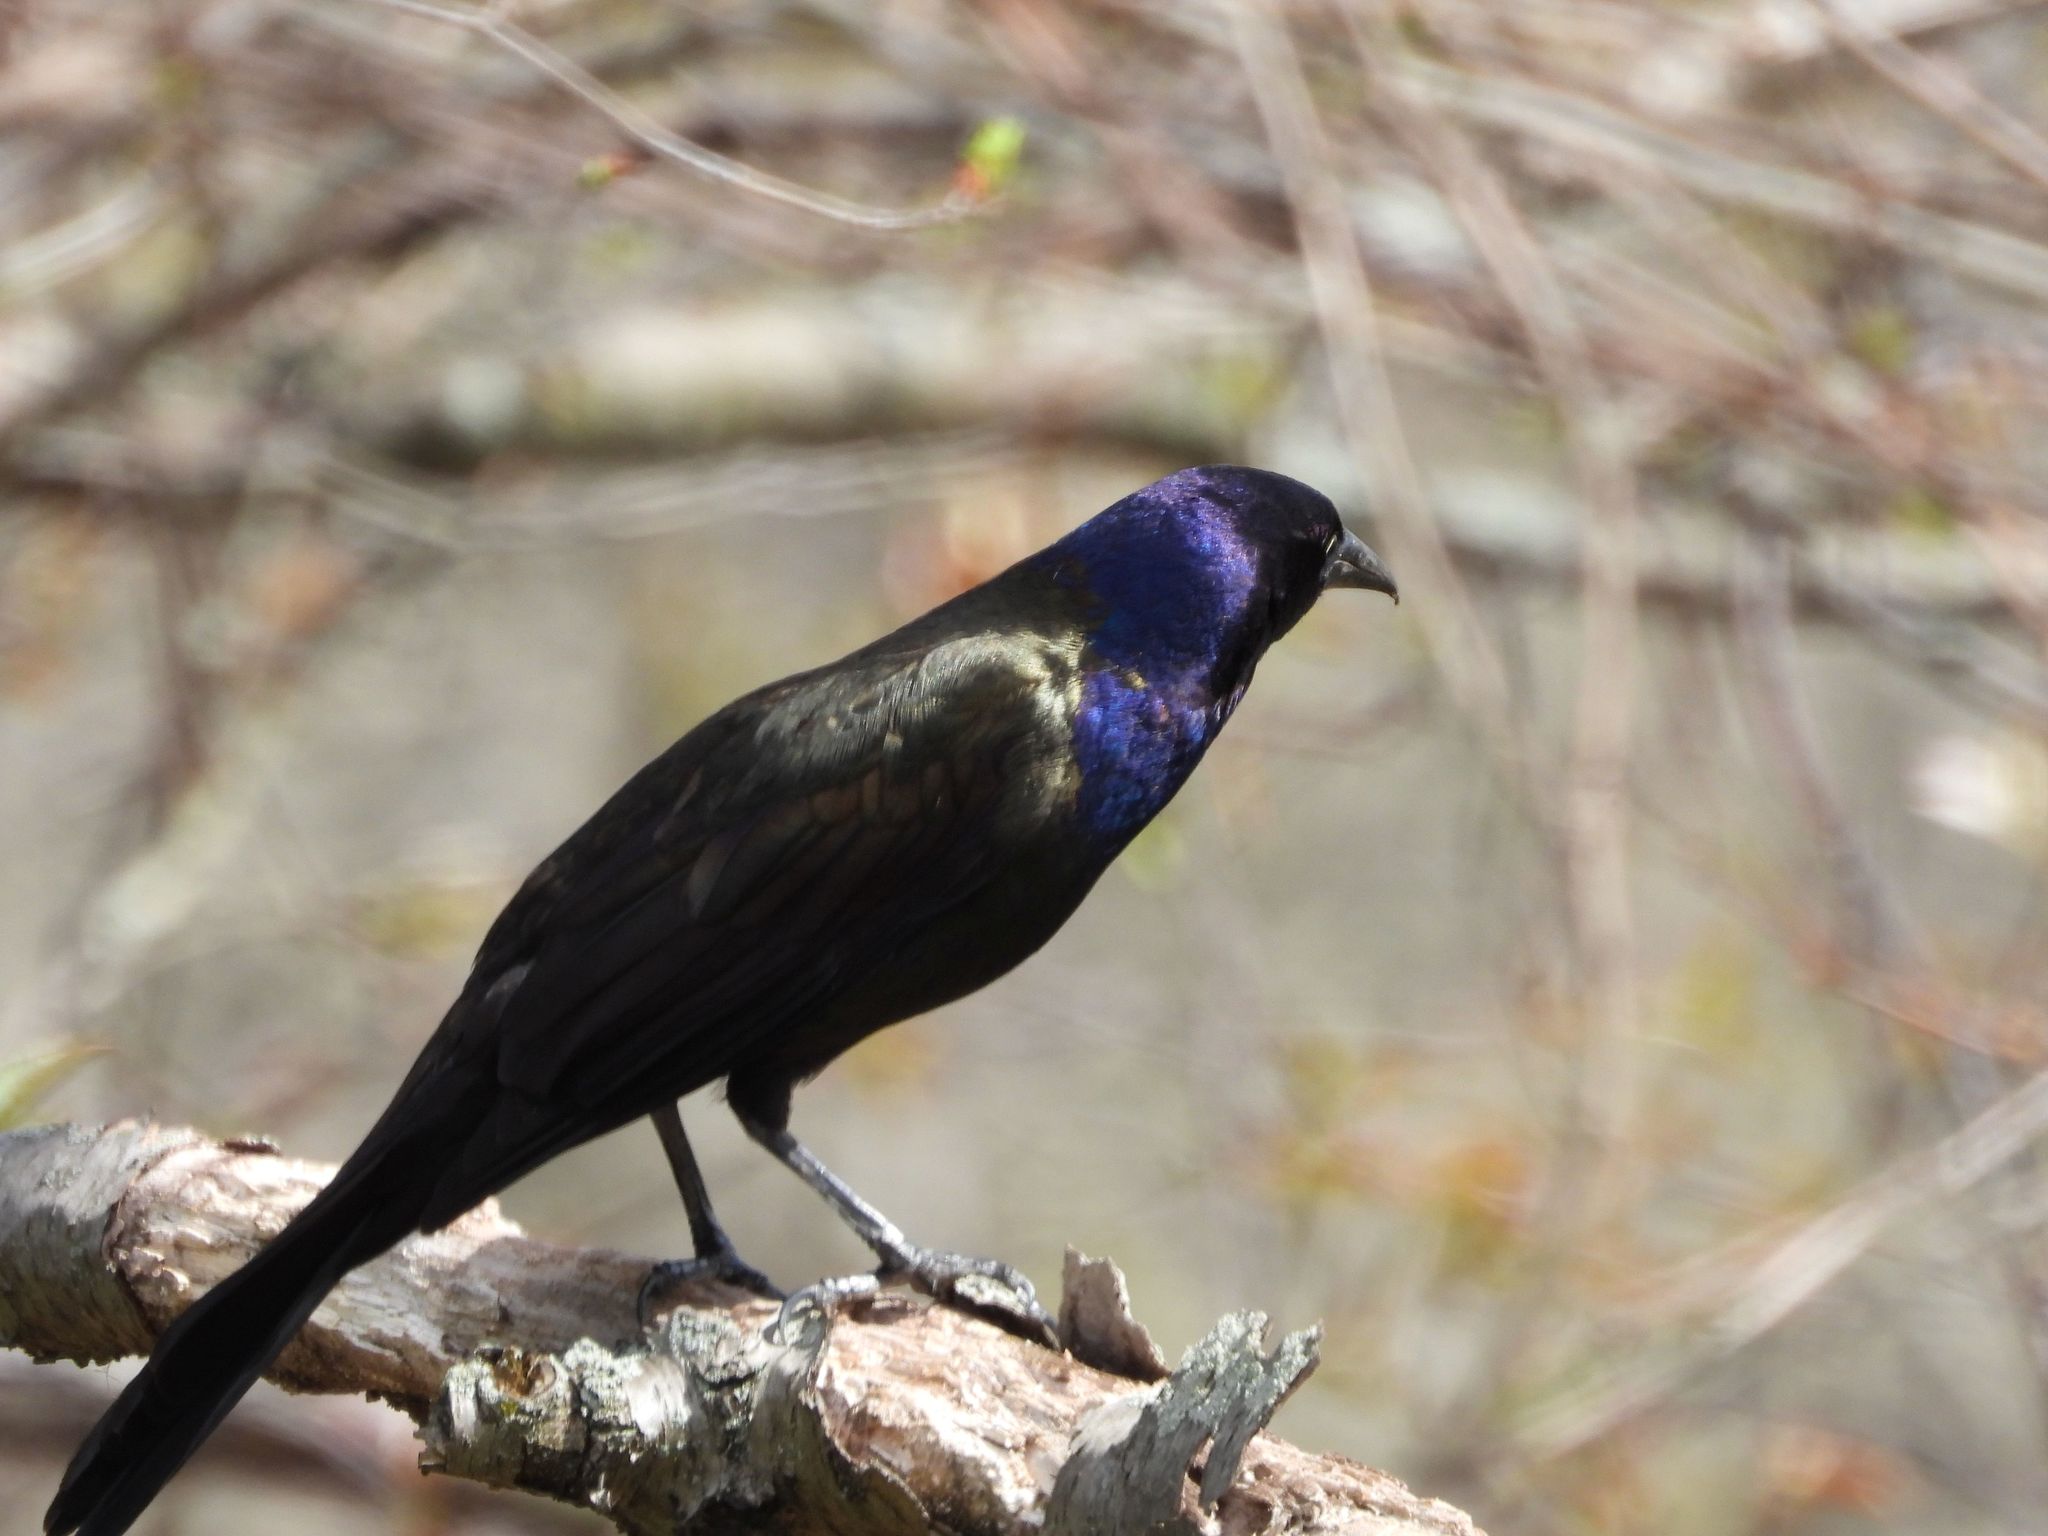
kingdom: Animalia
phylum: Chordata
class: Aves
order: Passeriformes
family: Icteridae
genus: Quiscalus
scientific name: Quiscalus quiscula
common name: Common grackle
